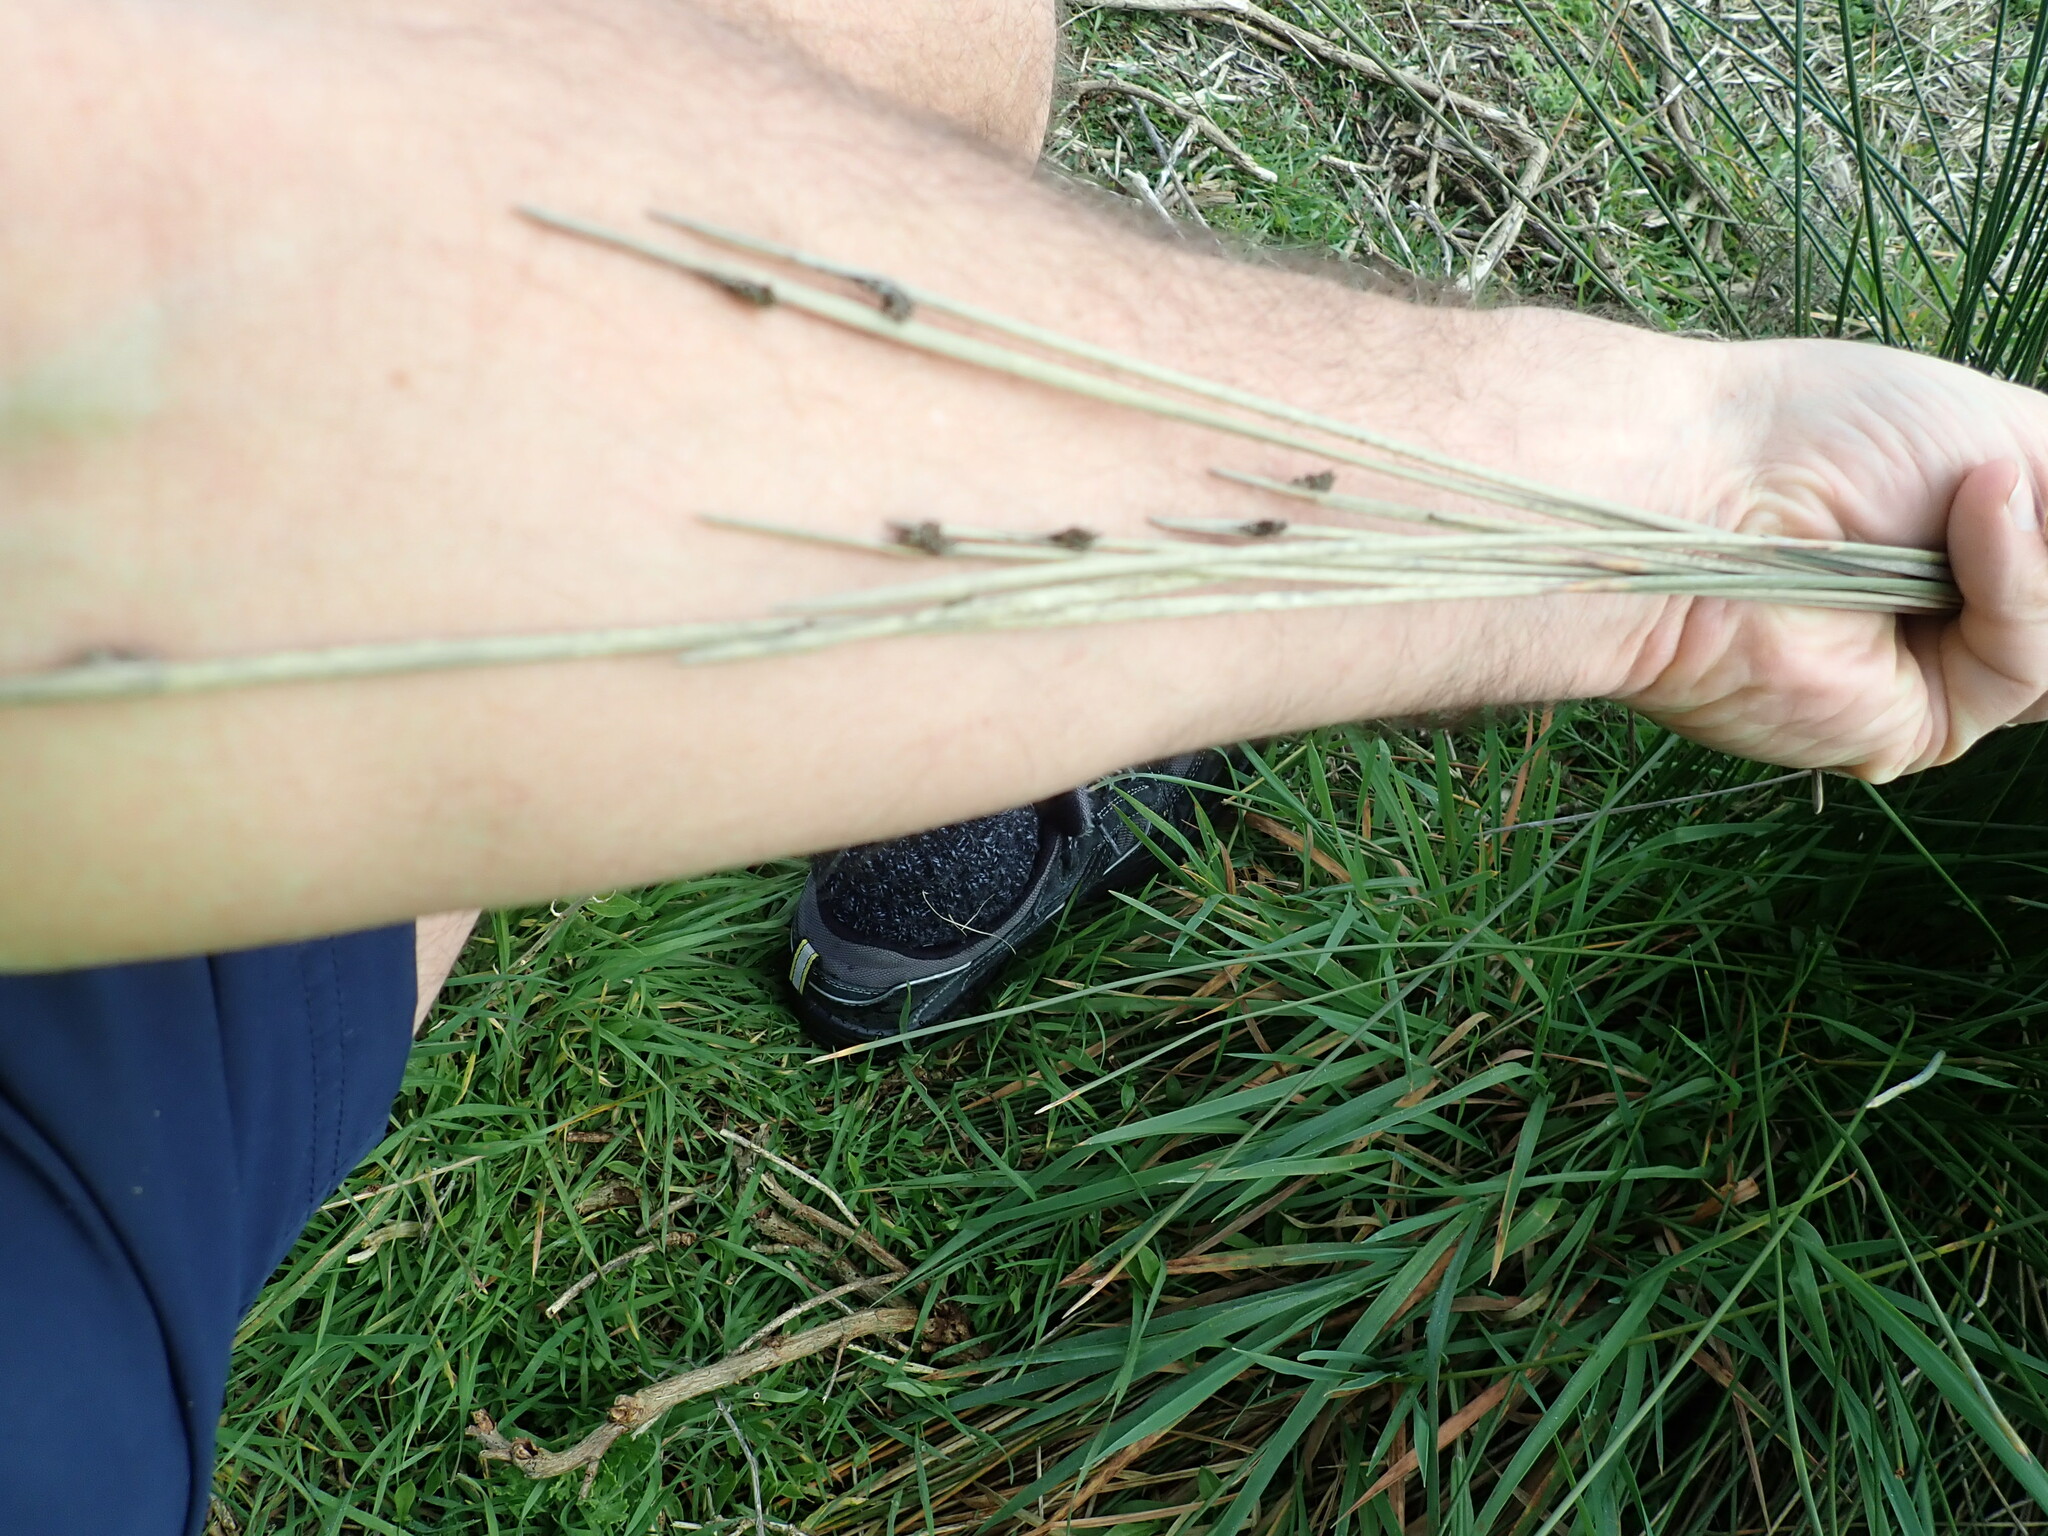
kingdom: Plantae
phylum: Tracheophyta
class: Liliopsida
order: Poales
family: Cyperaceae
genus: Ficinia
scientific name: Ficinia nodosa
